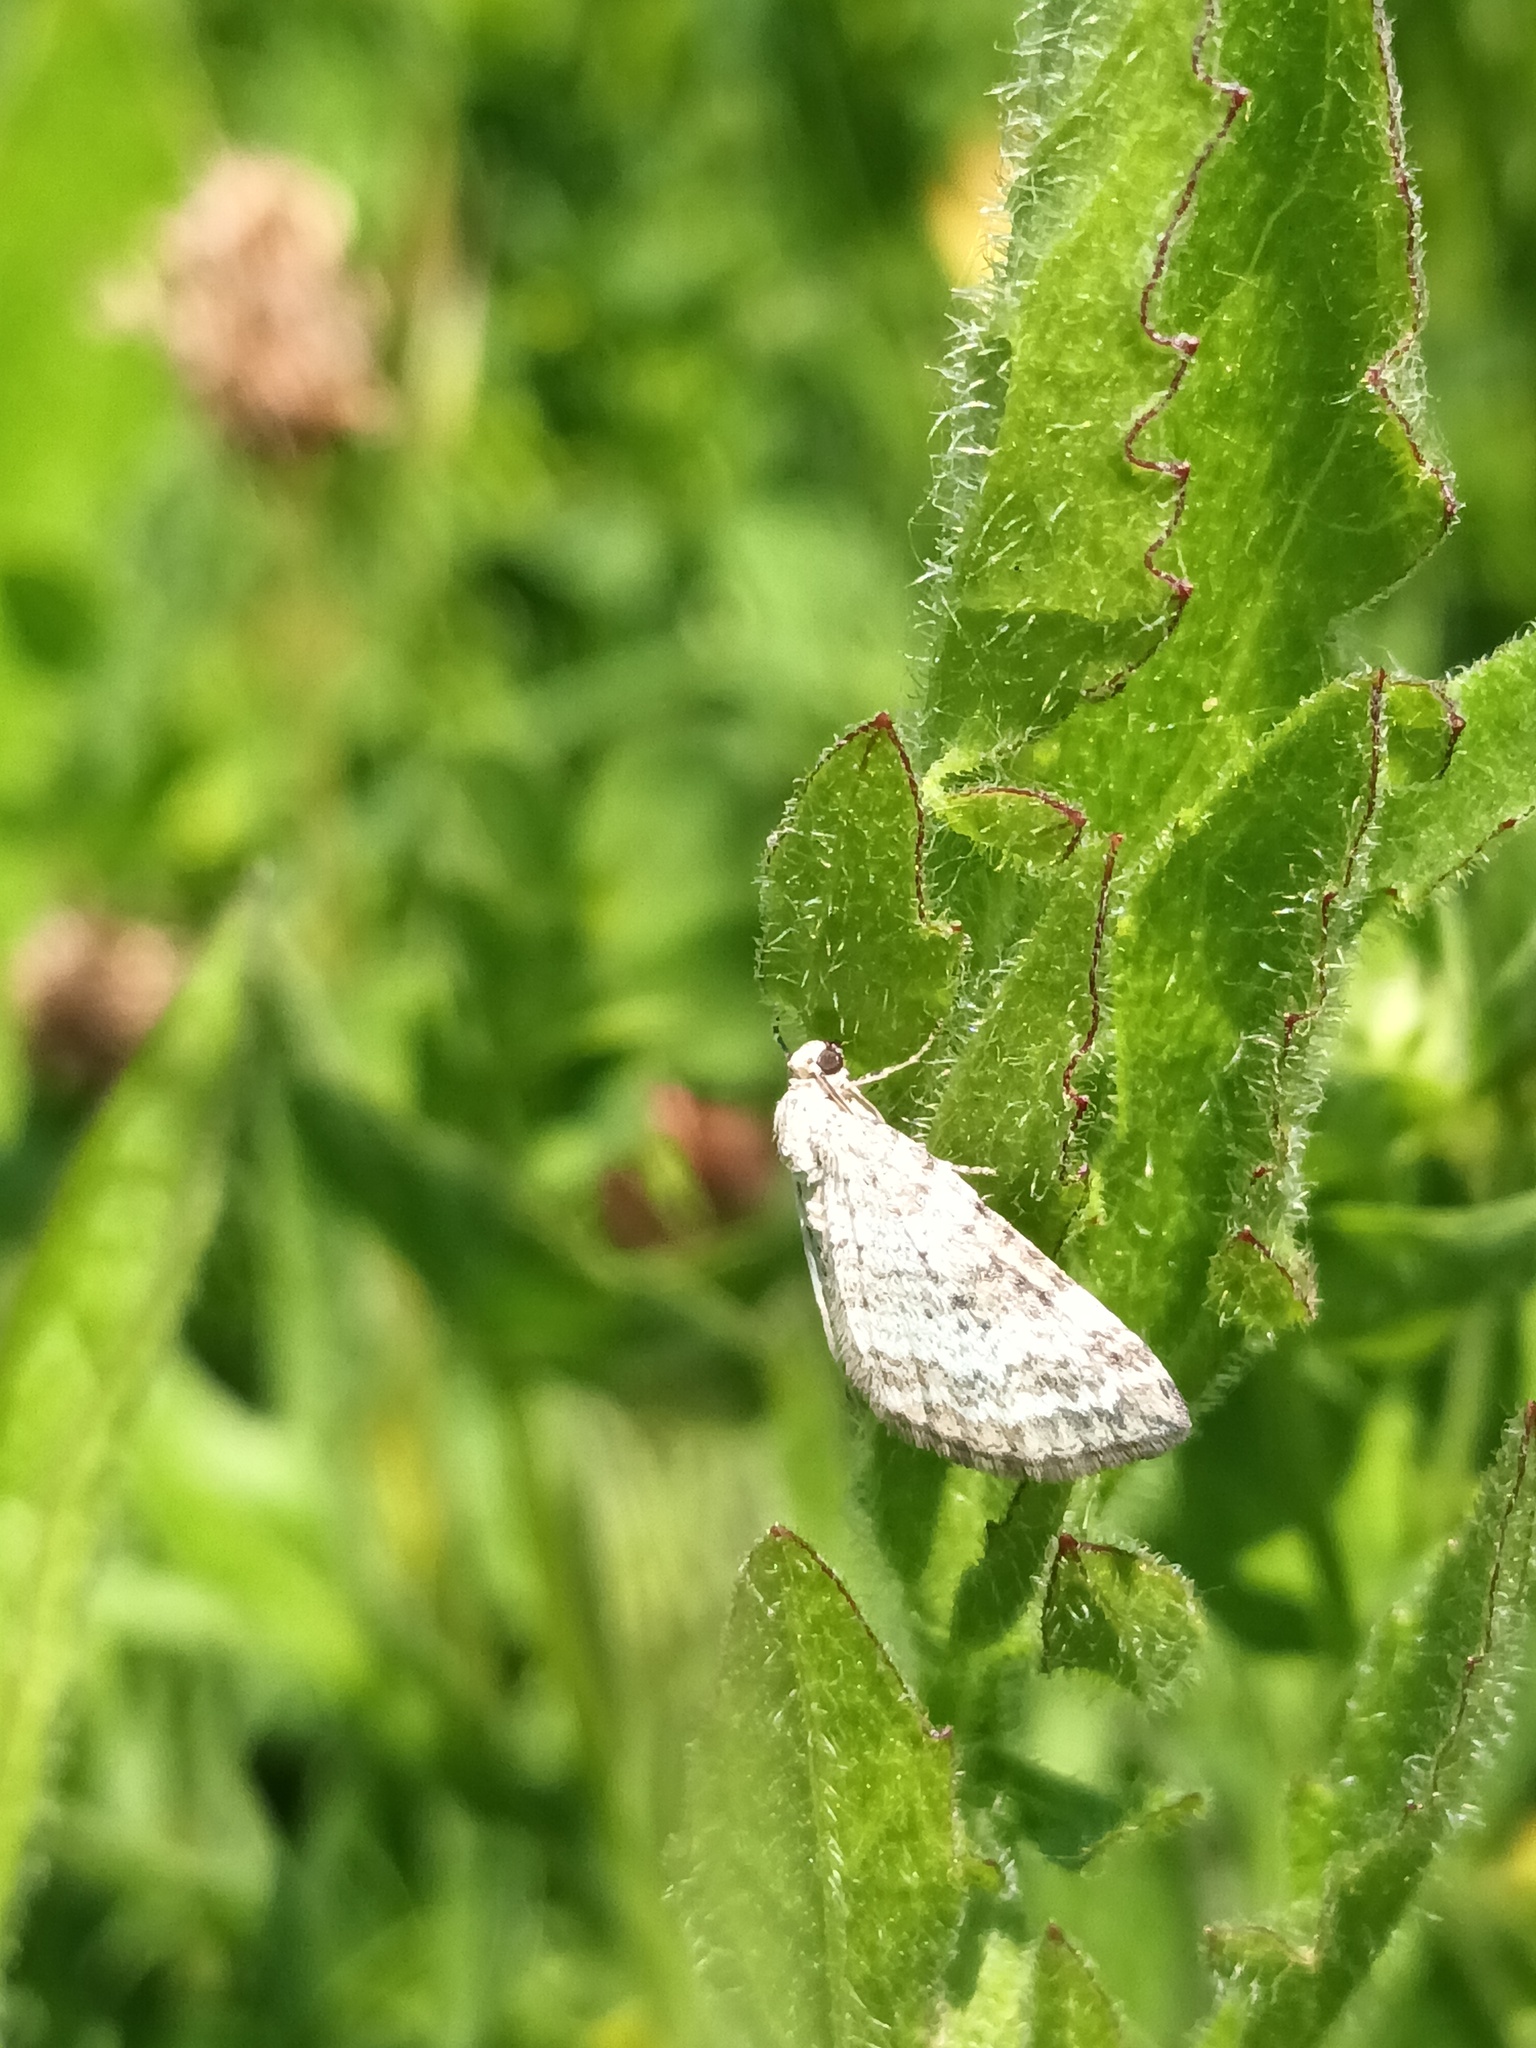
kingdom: Animalia
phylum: Arthropoda
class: Insecta
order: Lepidoptera
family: Geometridae
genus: Perizoma
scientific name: Perizoma albulata
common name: Grass rivulet
